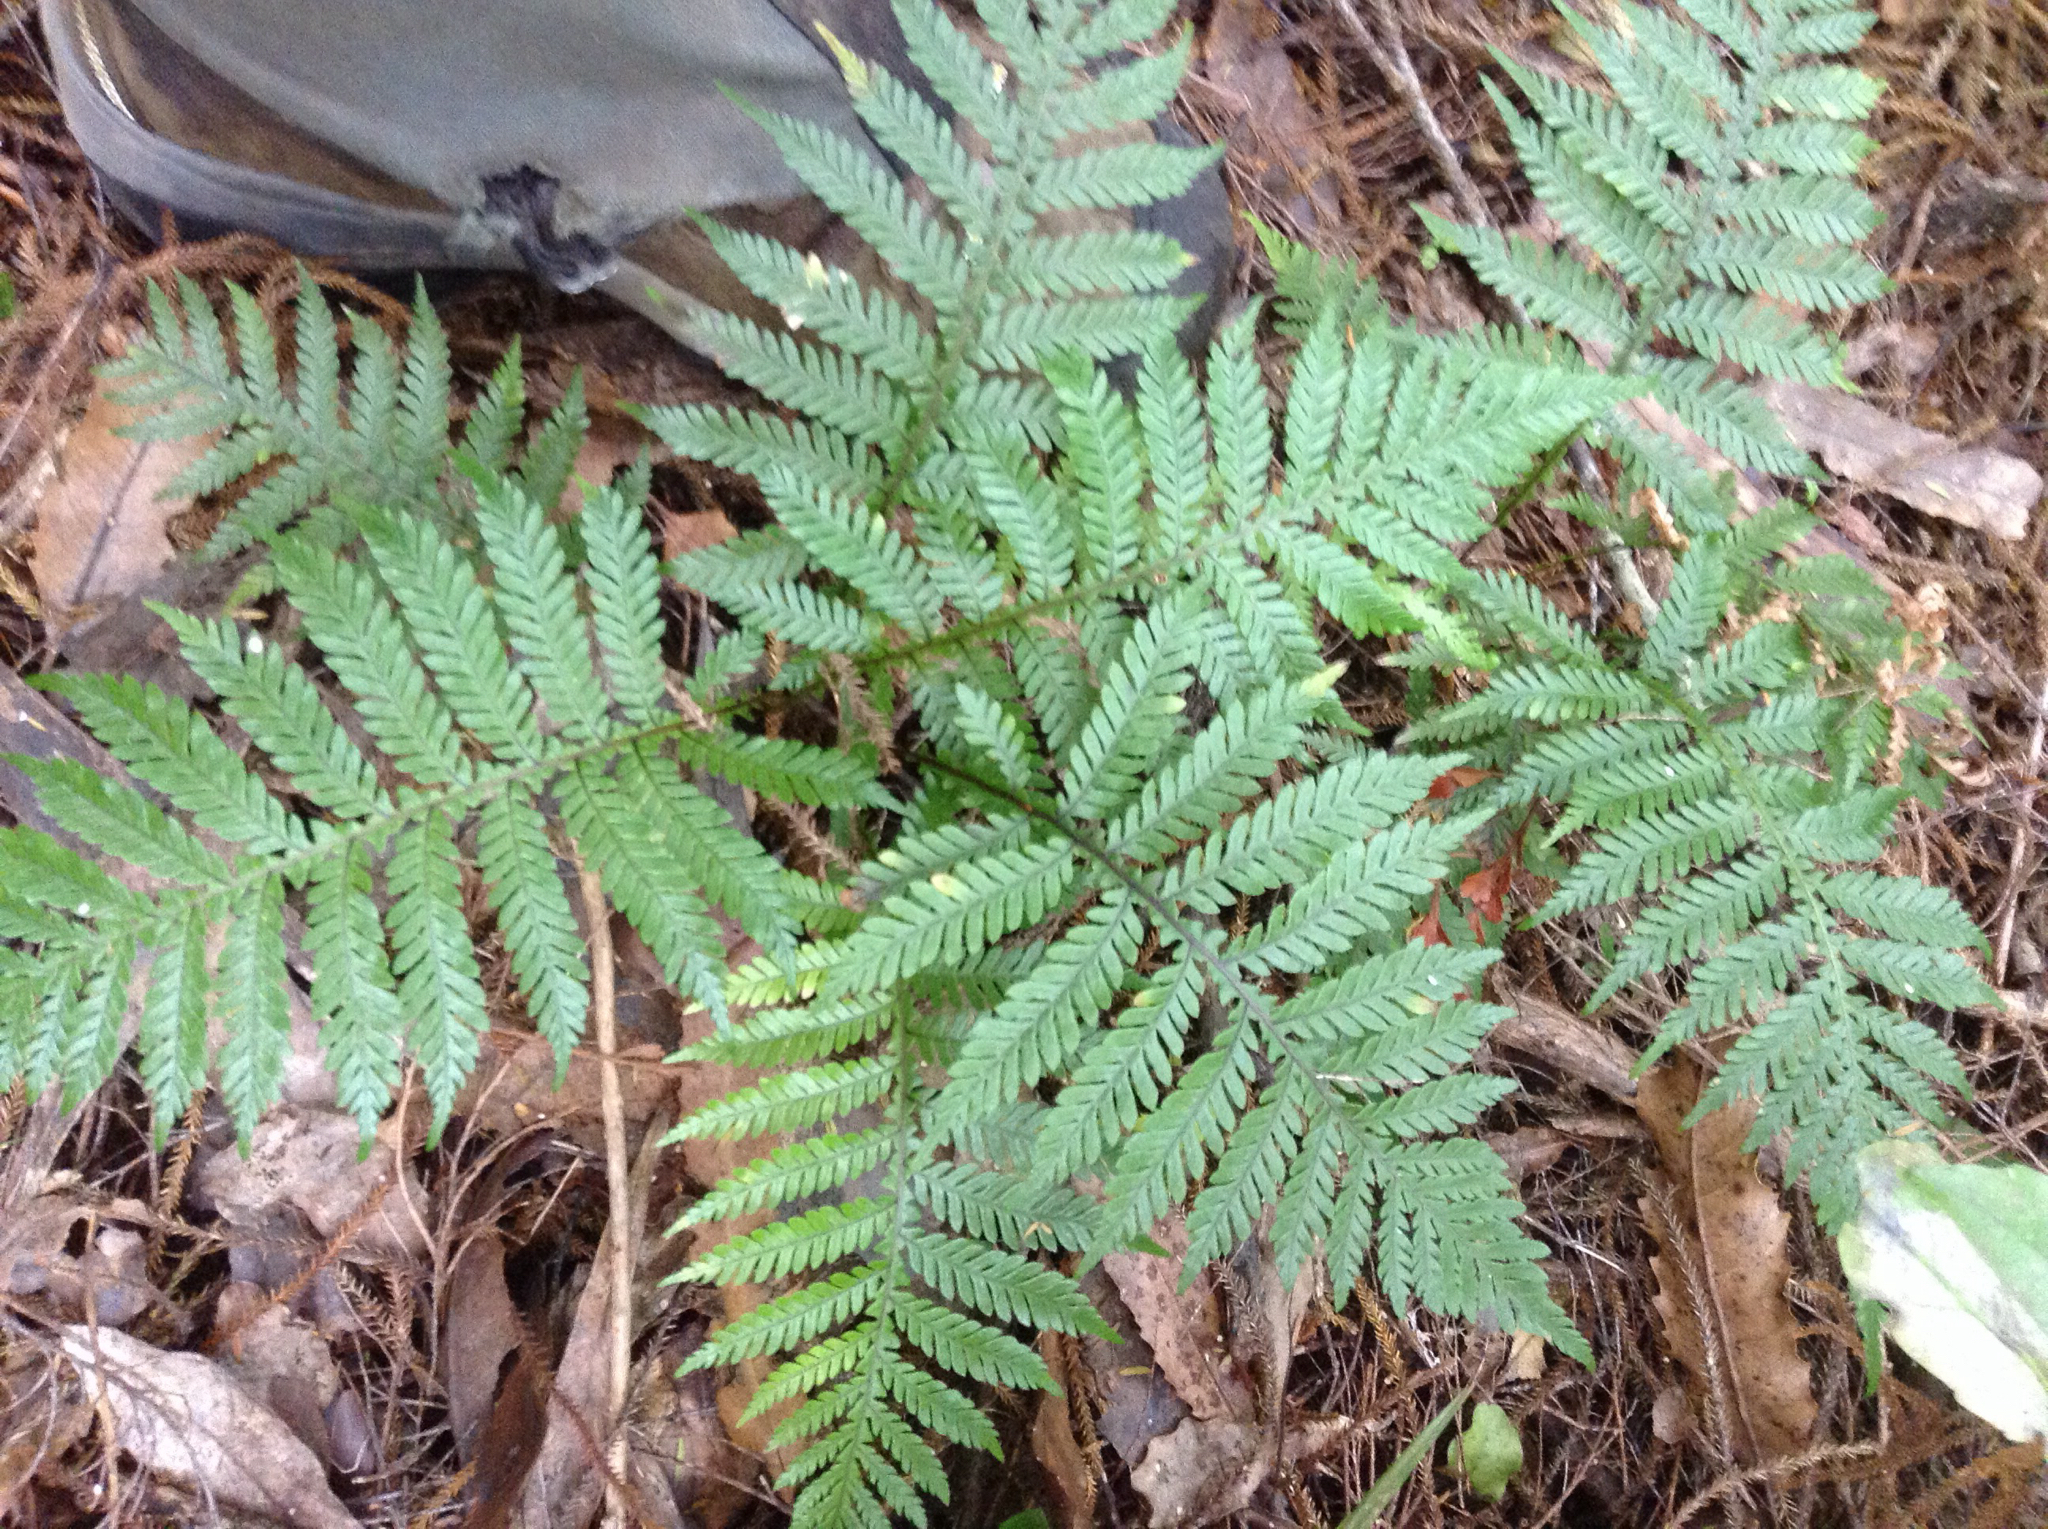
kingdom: Plantae
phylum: Tracheophyta
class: Polypodiopsida
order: Polypodiales
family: Blechnaceae
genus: Diploblechnum
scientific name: Diploblechnum fraseri
